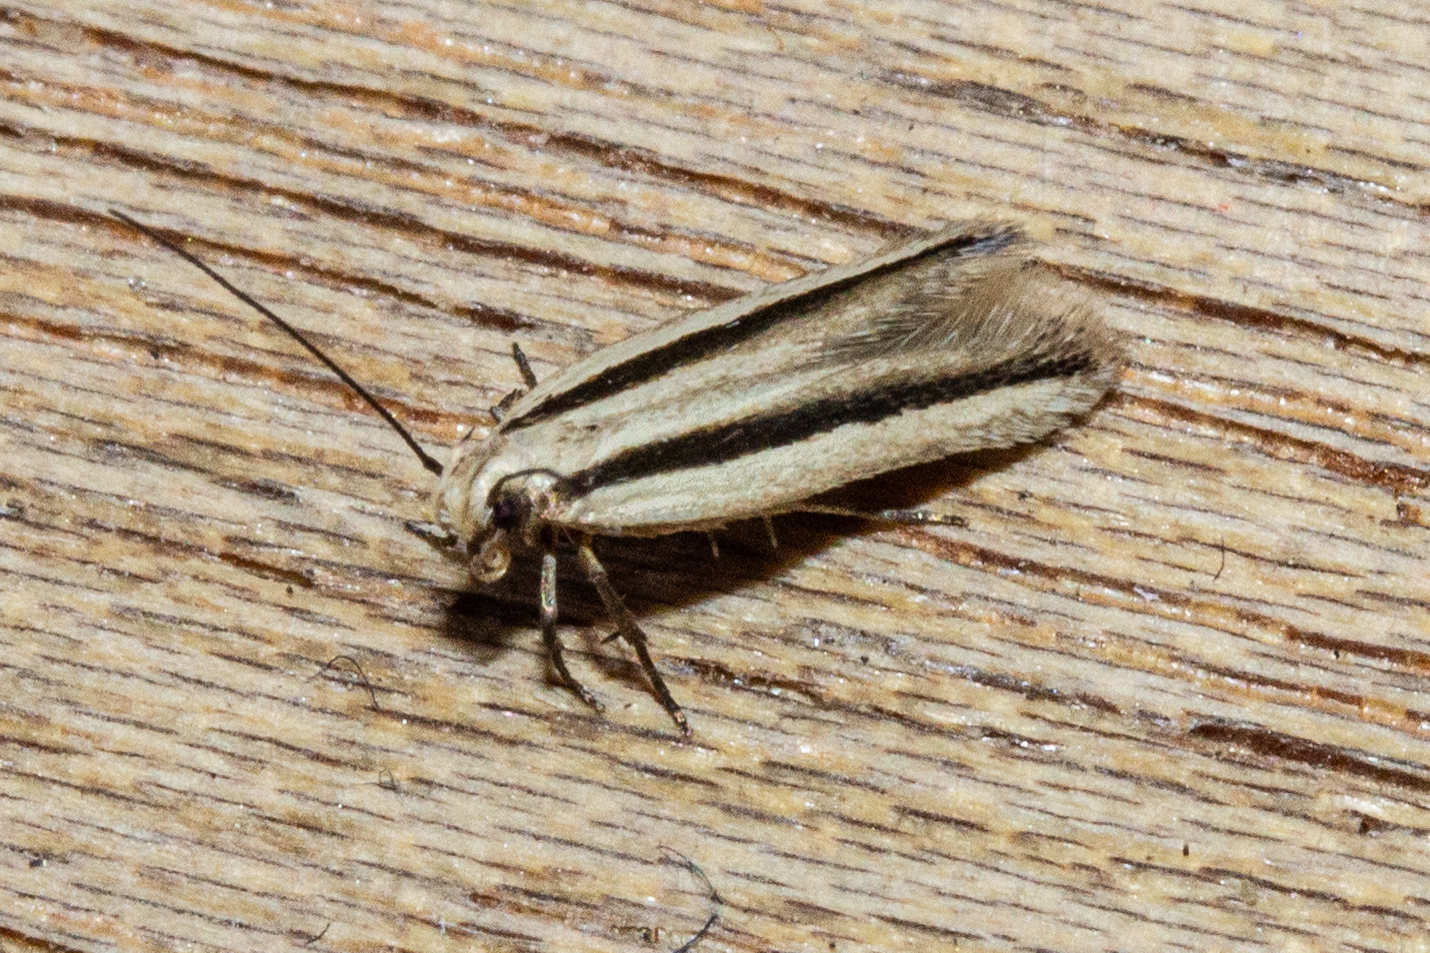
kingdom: Animalia
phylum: Arthropoda
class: Insecta
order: Lepidoptera
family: Gelechiidae
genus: Kiwaia
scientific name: Kiwaia monophragma
